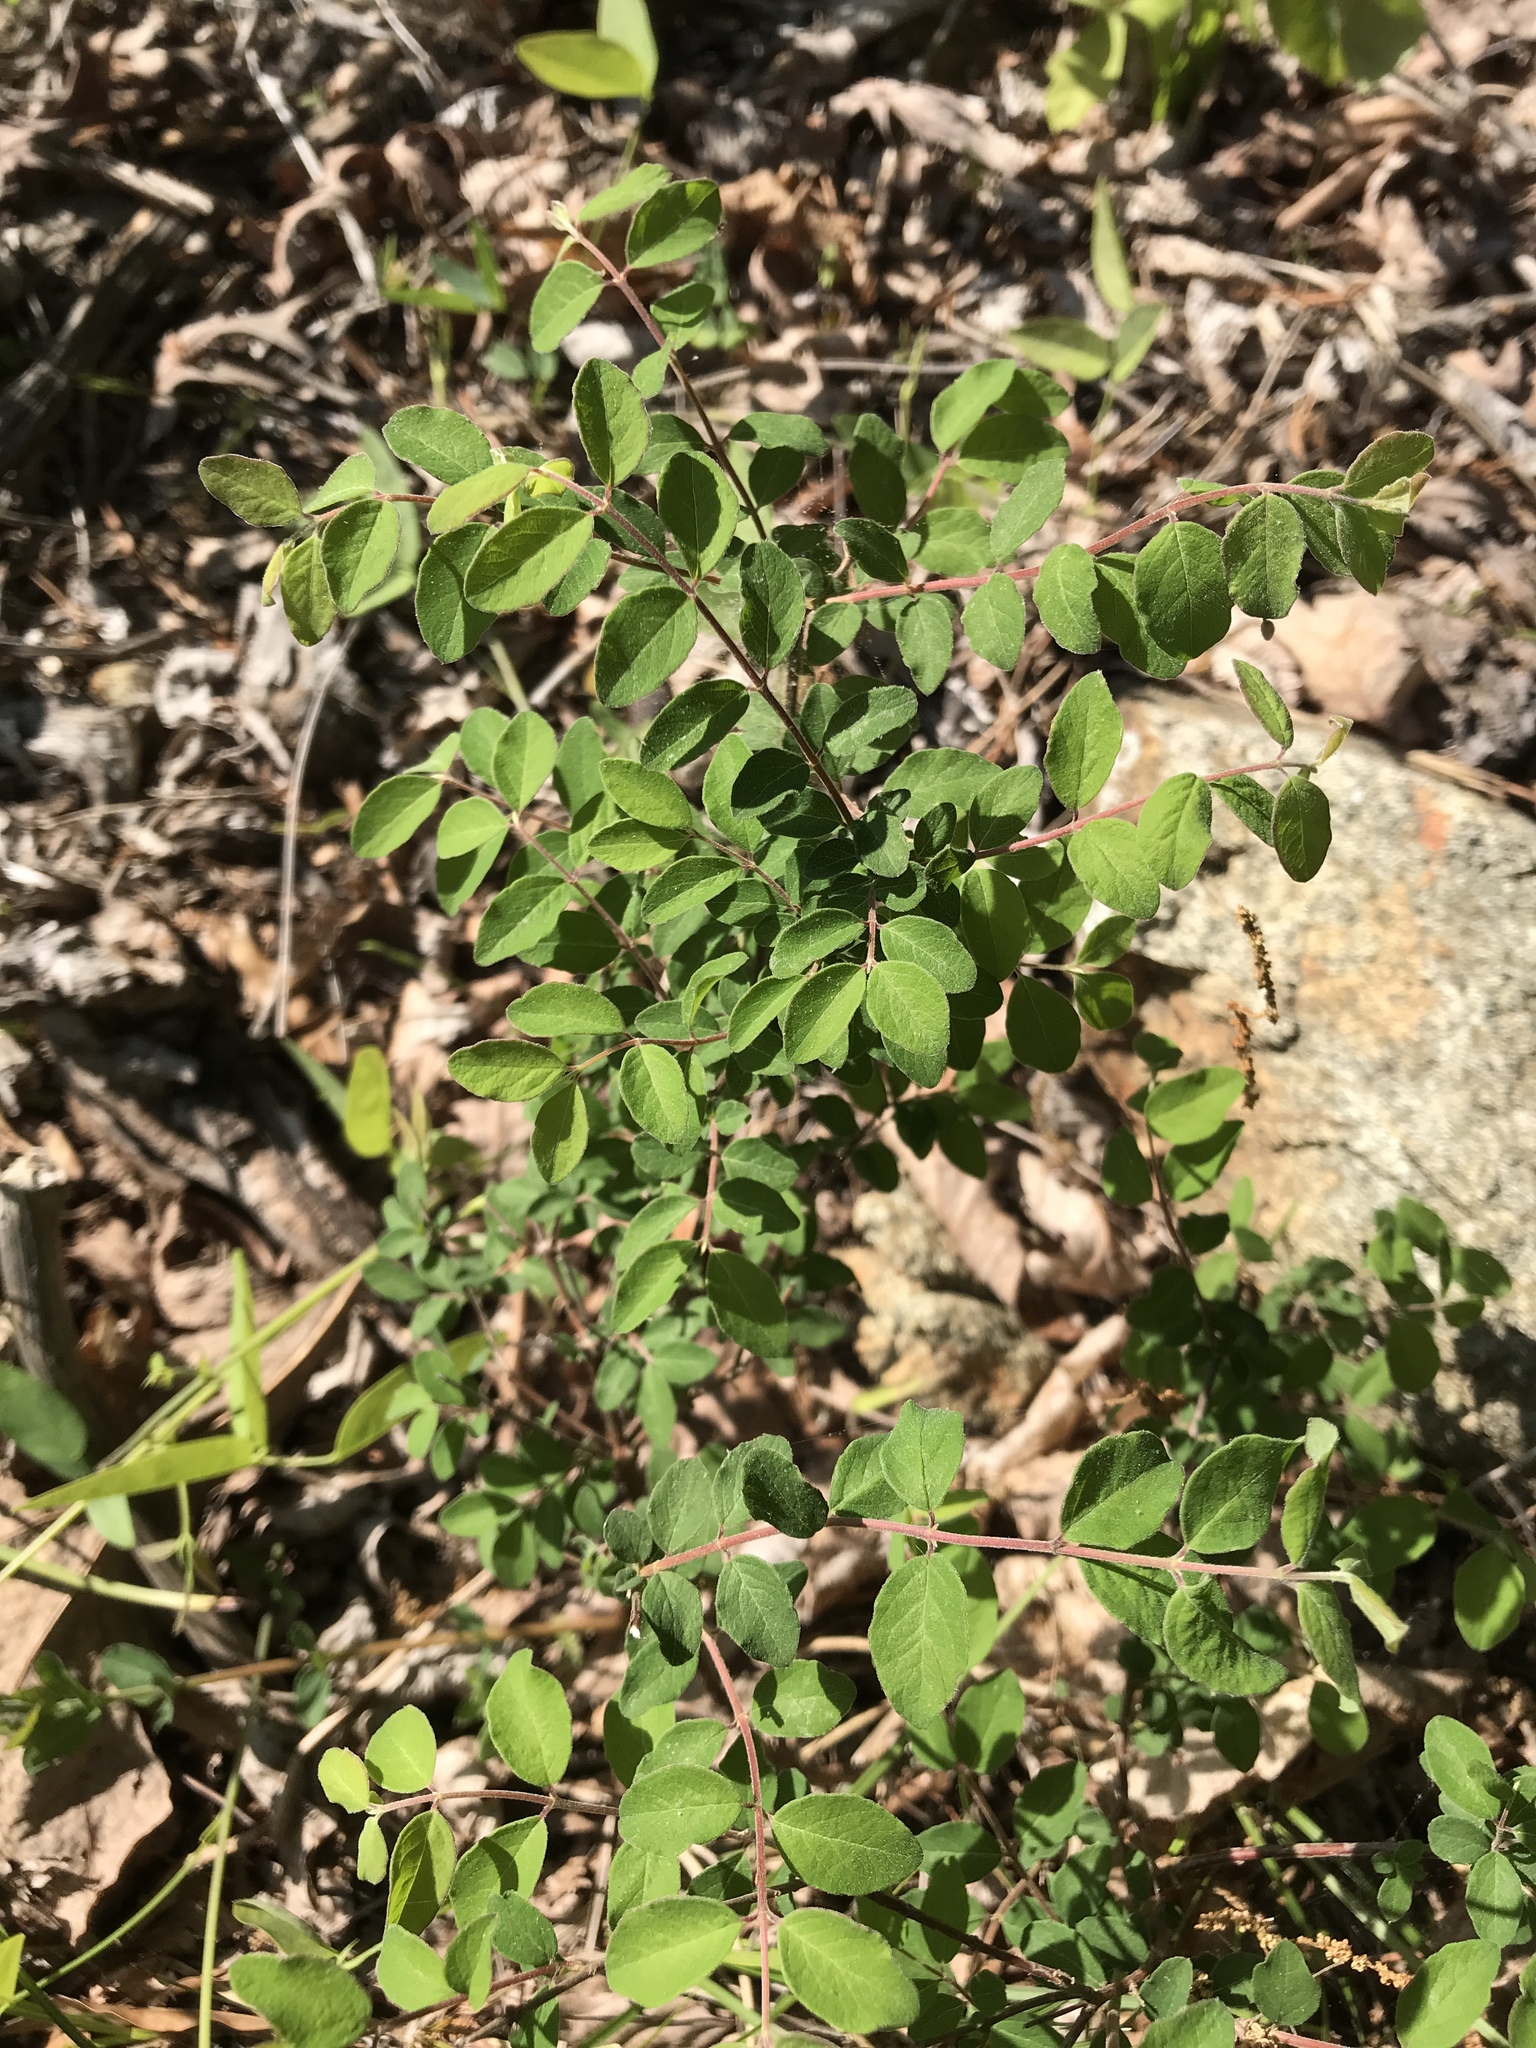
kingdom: Plantae
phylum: Tracheophyta
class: Magnoliopsida
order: Dipsacales
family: Caprifoliaceae
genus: Symphoricarpos
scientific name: Symphoricarpos orbiculatus
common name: Coralberry
